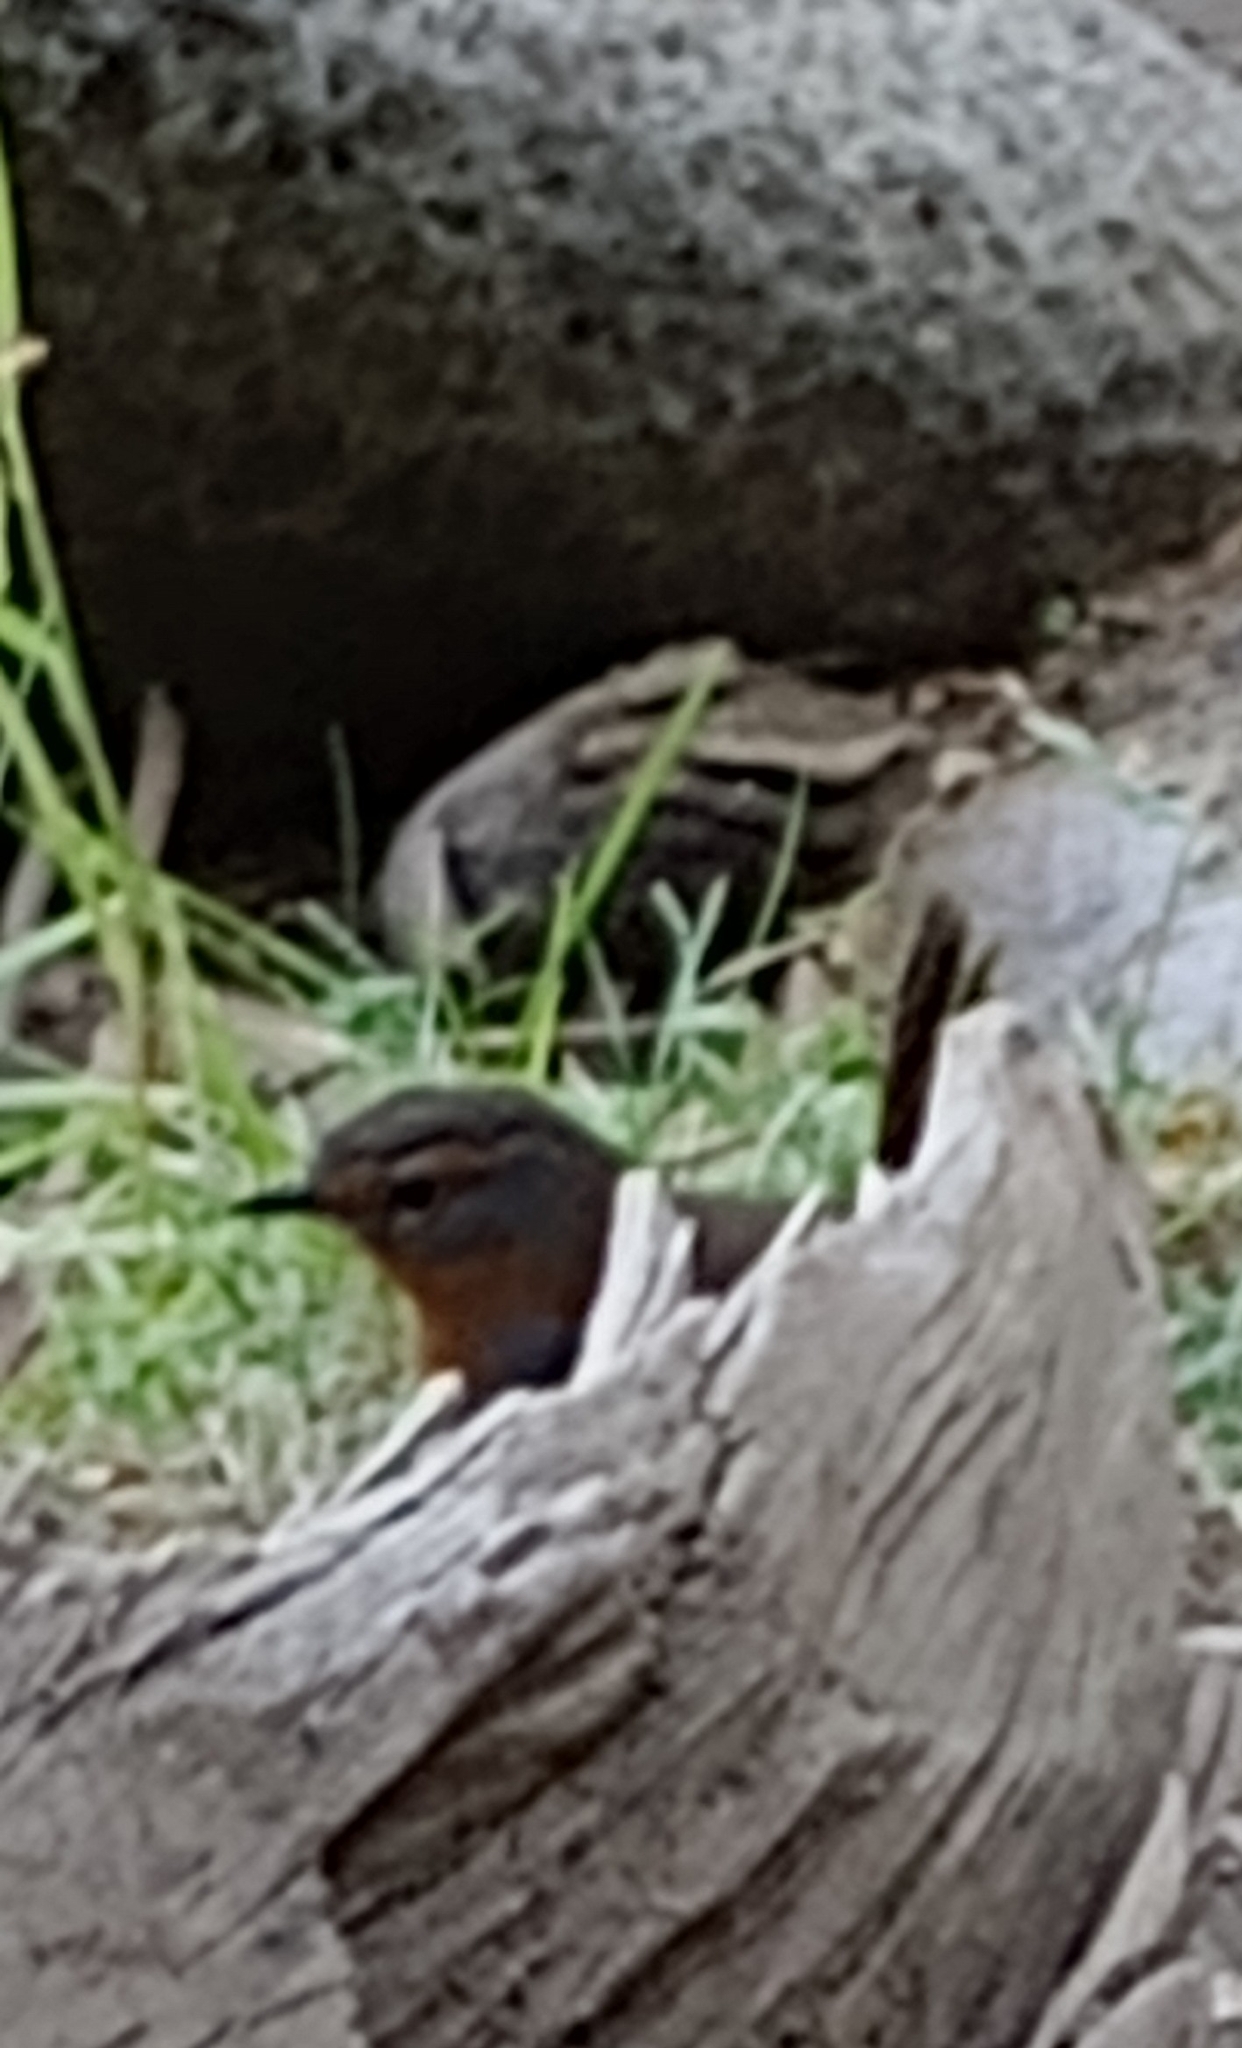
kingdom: Animalia
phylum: Chordata
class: Aves
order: Passeriformes
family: Rhinocryptidae
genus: Scelorchilus
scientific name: Scelorchilus rubecula
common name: Chucao tapaculo
